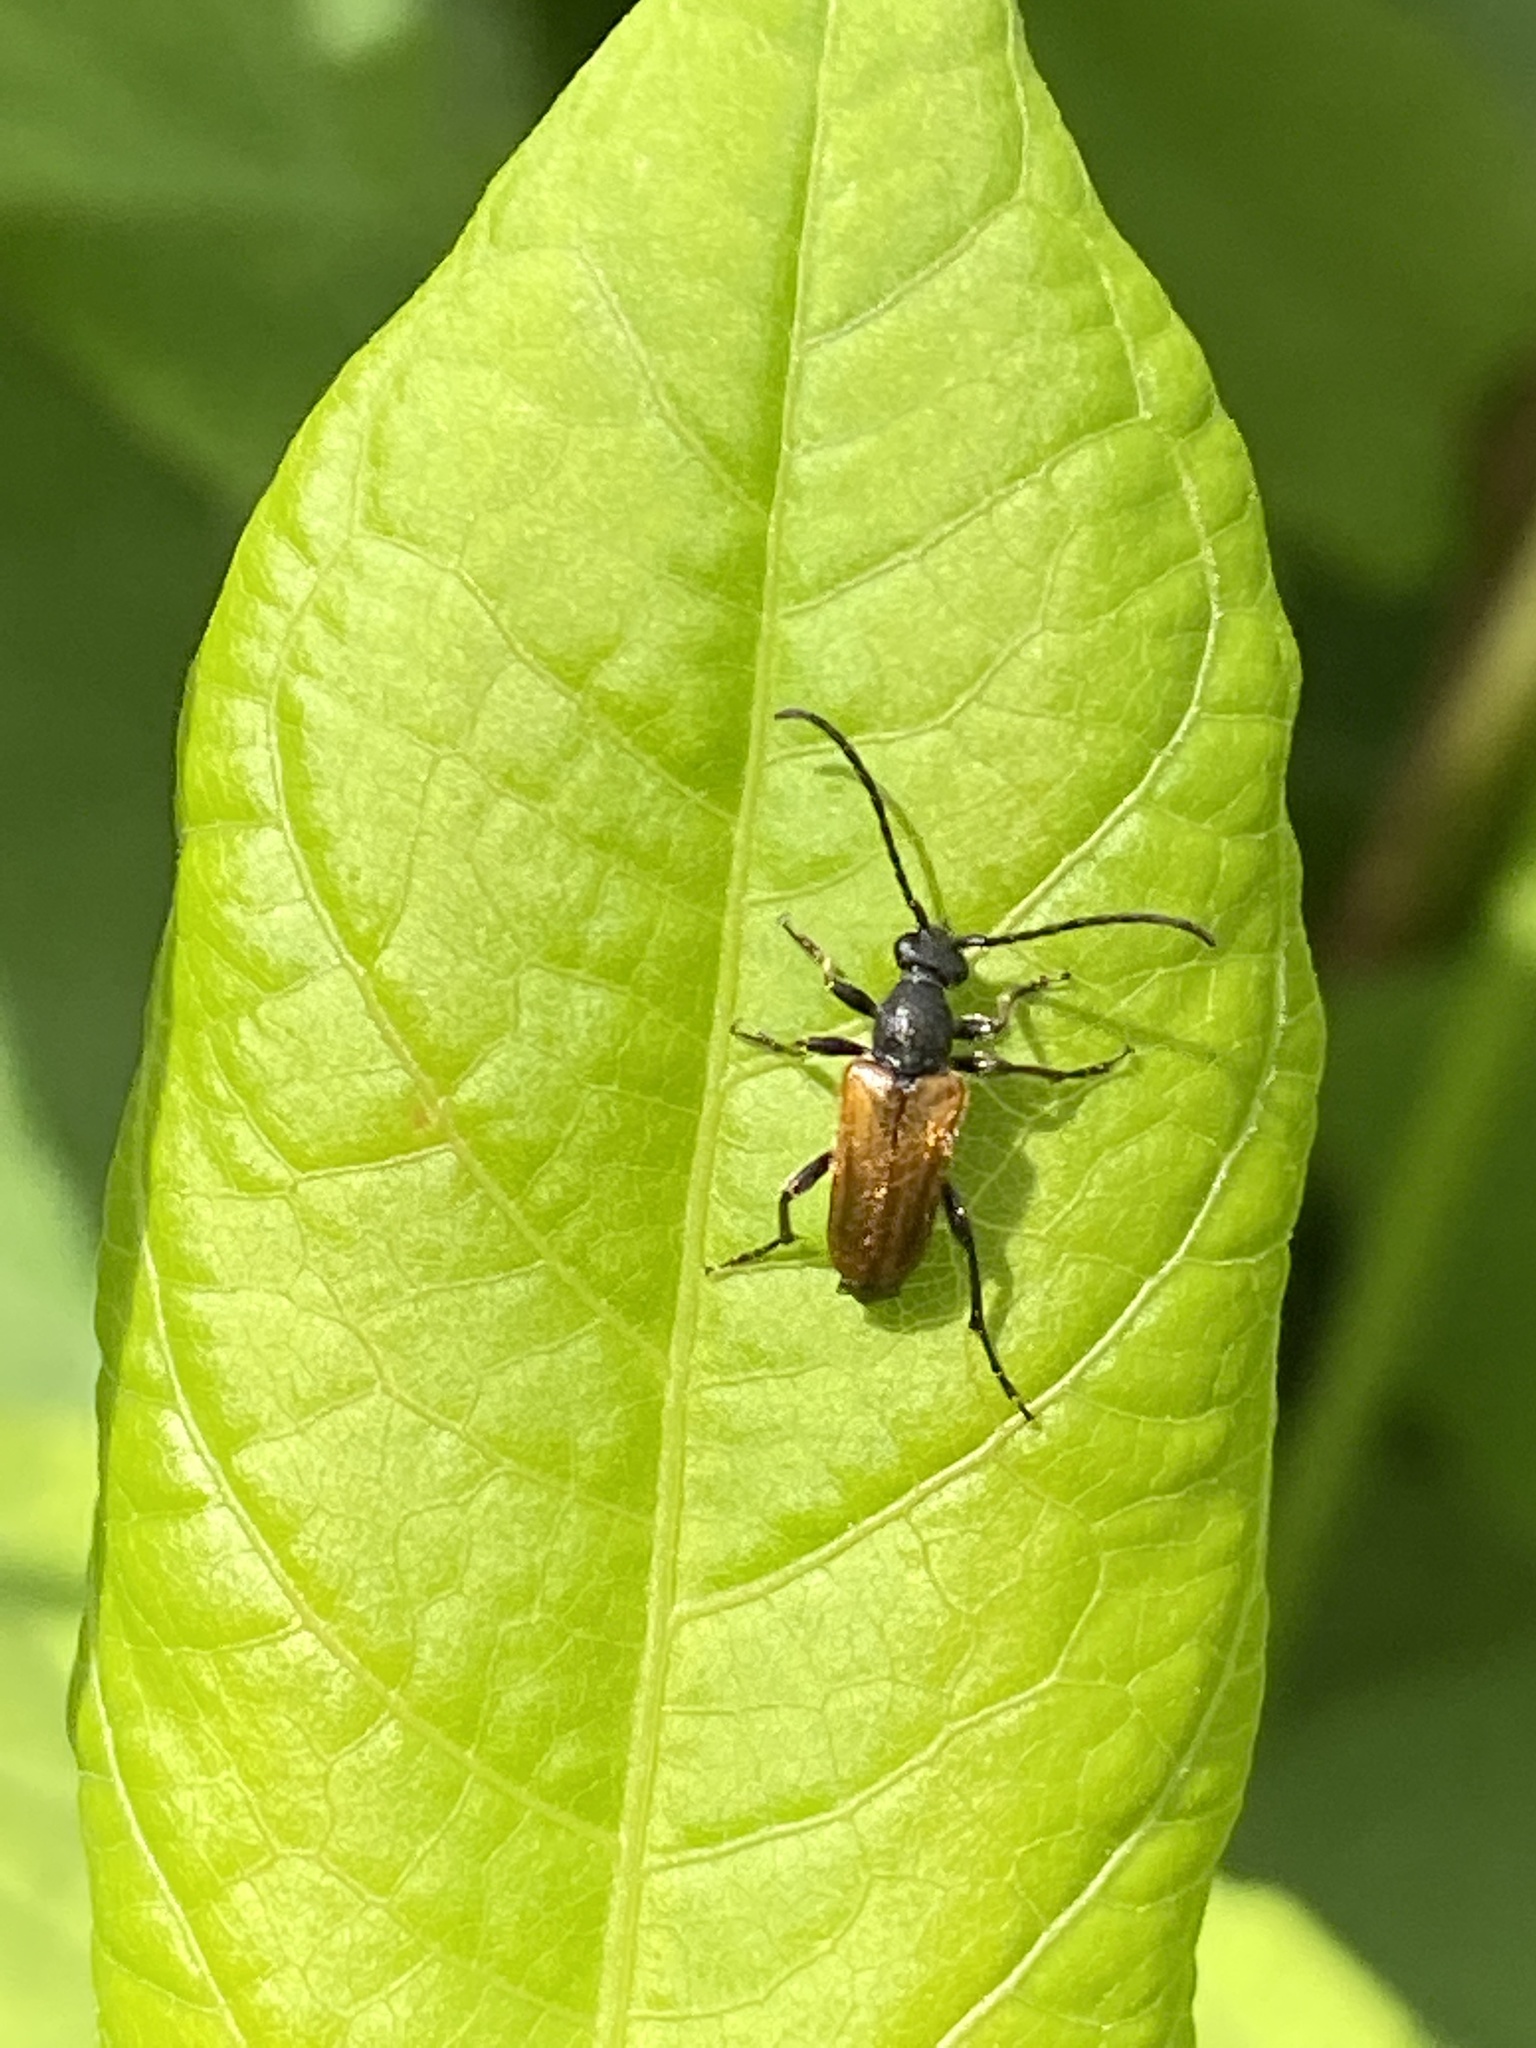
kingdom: Animalia
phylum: Arthropoda
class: Insecta
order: Coleoptera
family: Cerambycidae
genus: Pseudovadonia
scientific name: Pseudovadonia livida
